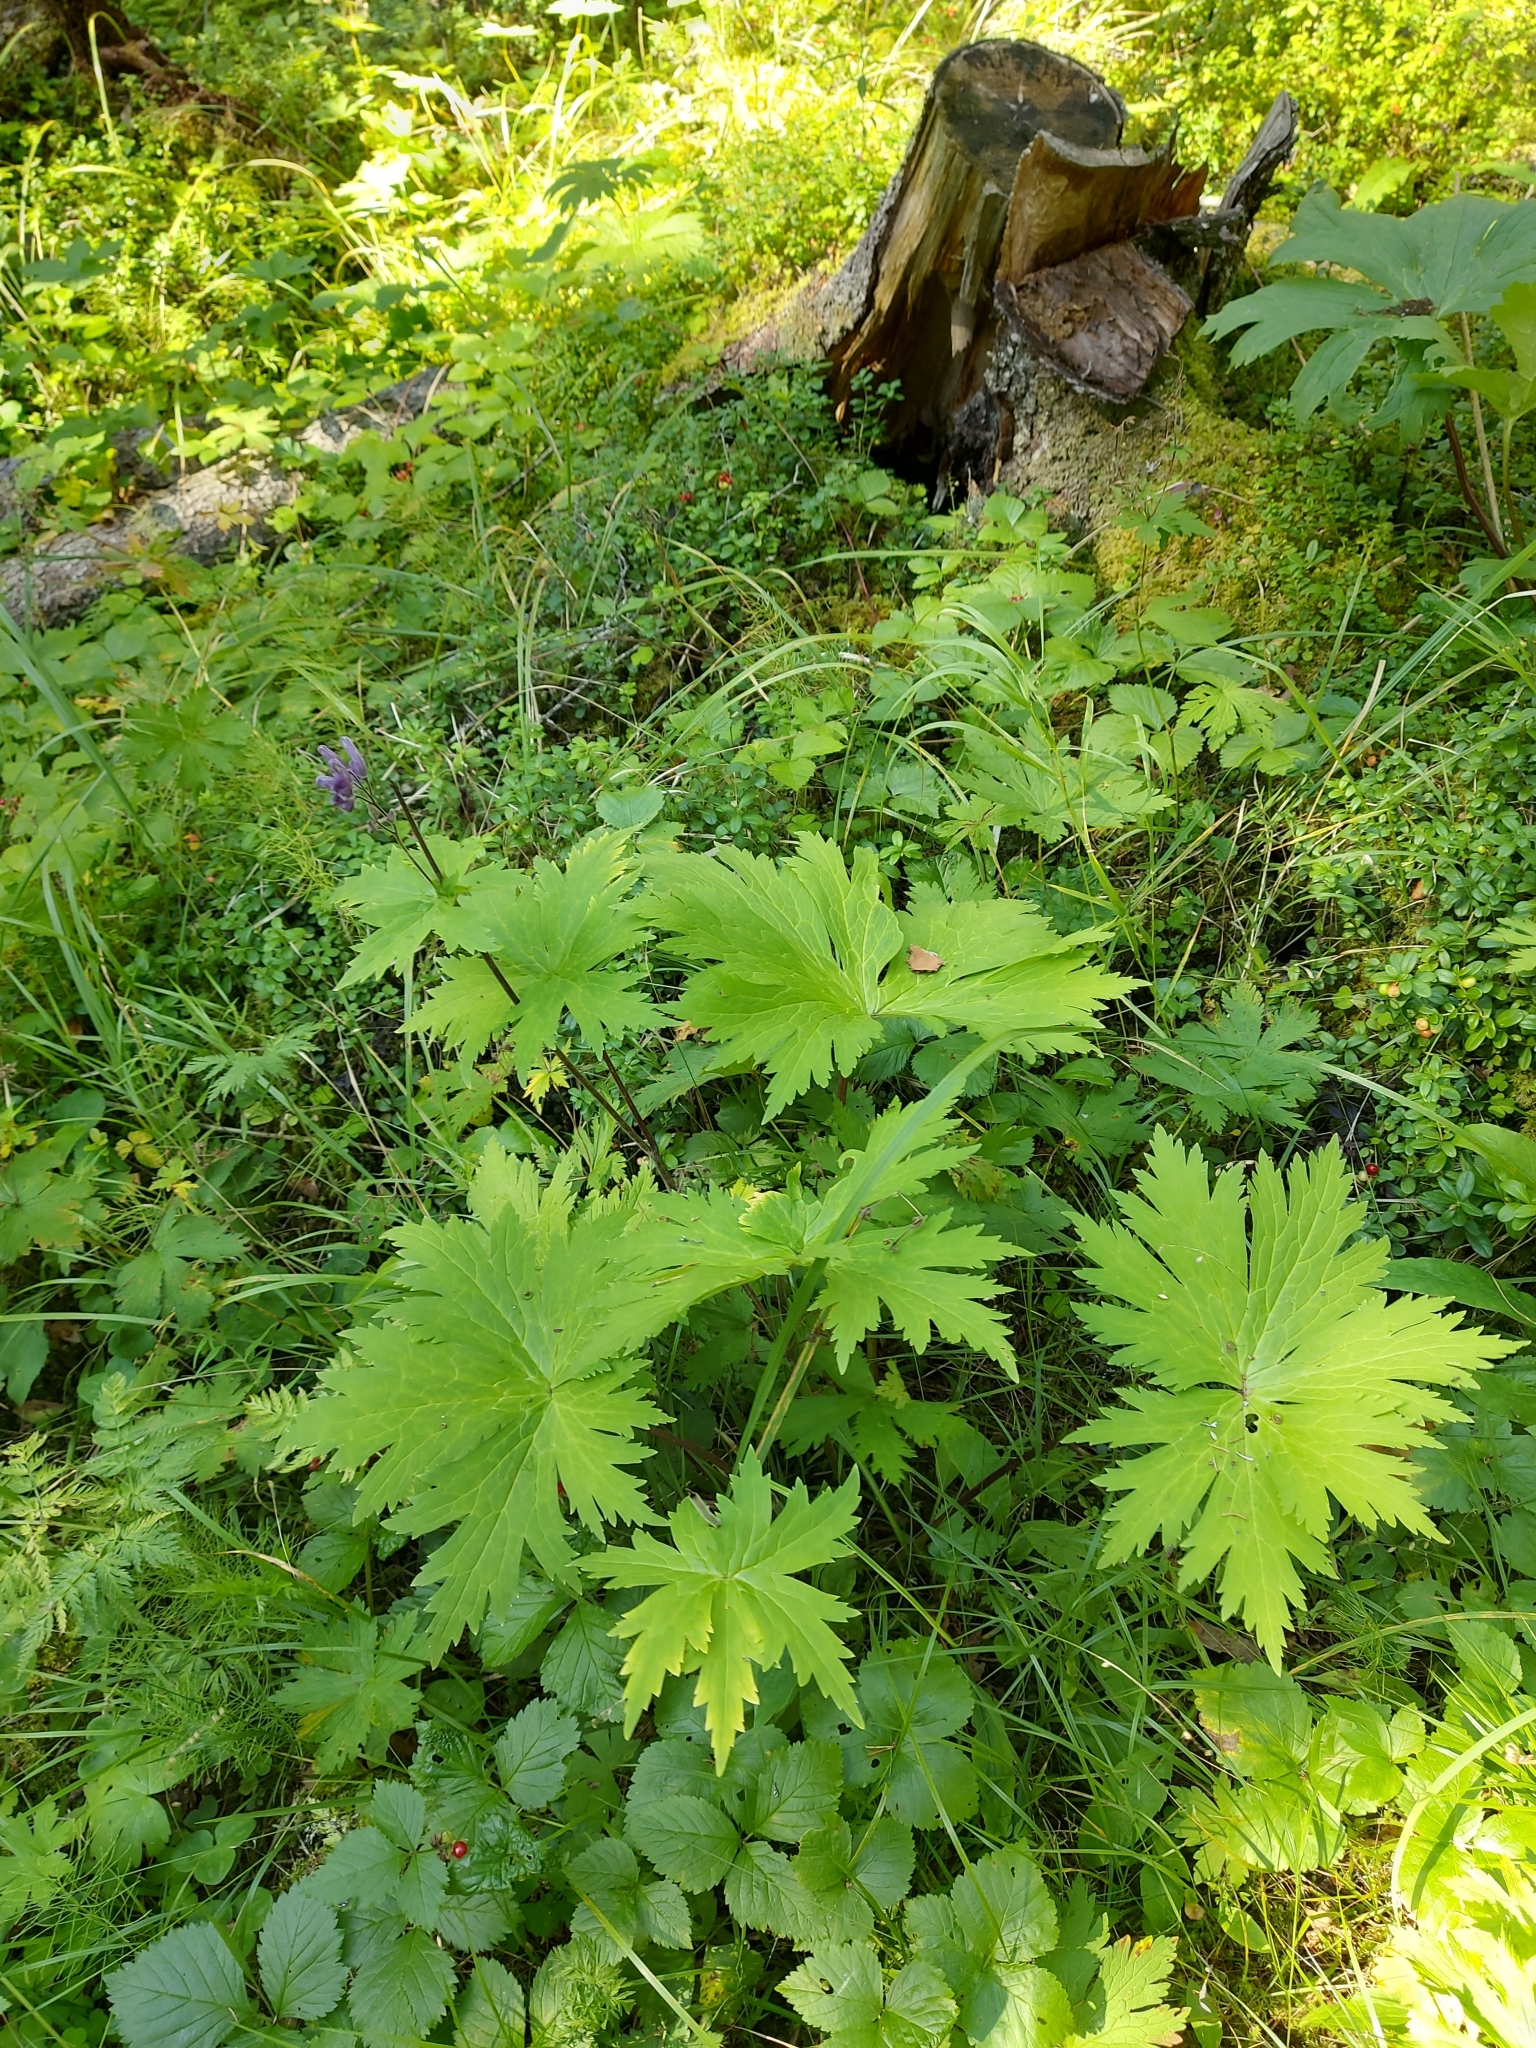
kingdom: Plantae
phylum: Tracheophyta
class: Magnoliopsida
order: Ranunculales
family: Ranunculaceae
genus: Aconitum
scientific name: Aconitum septentrionale
